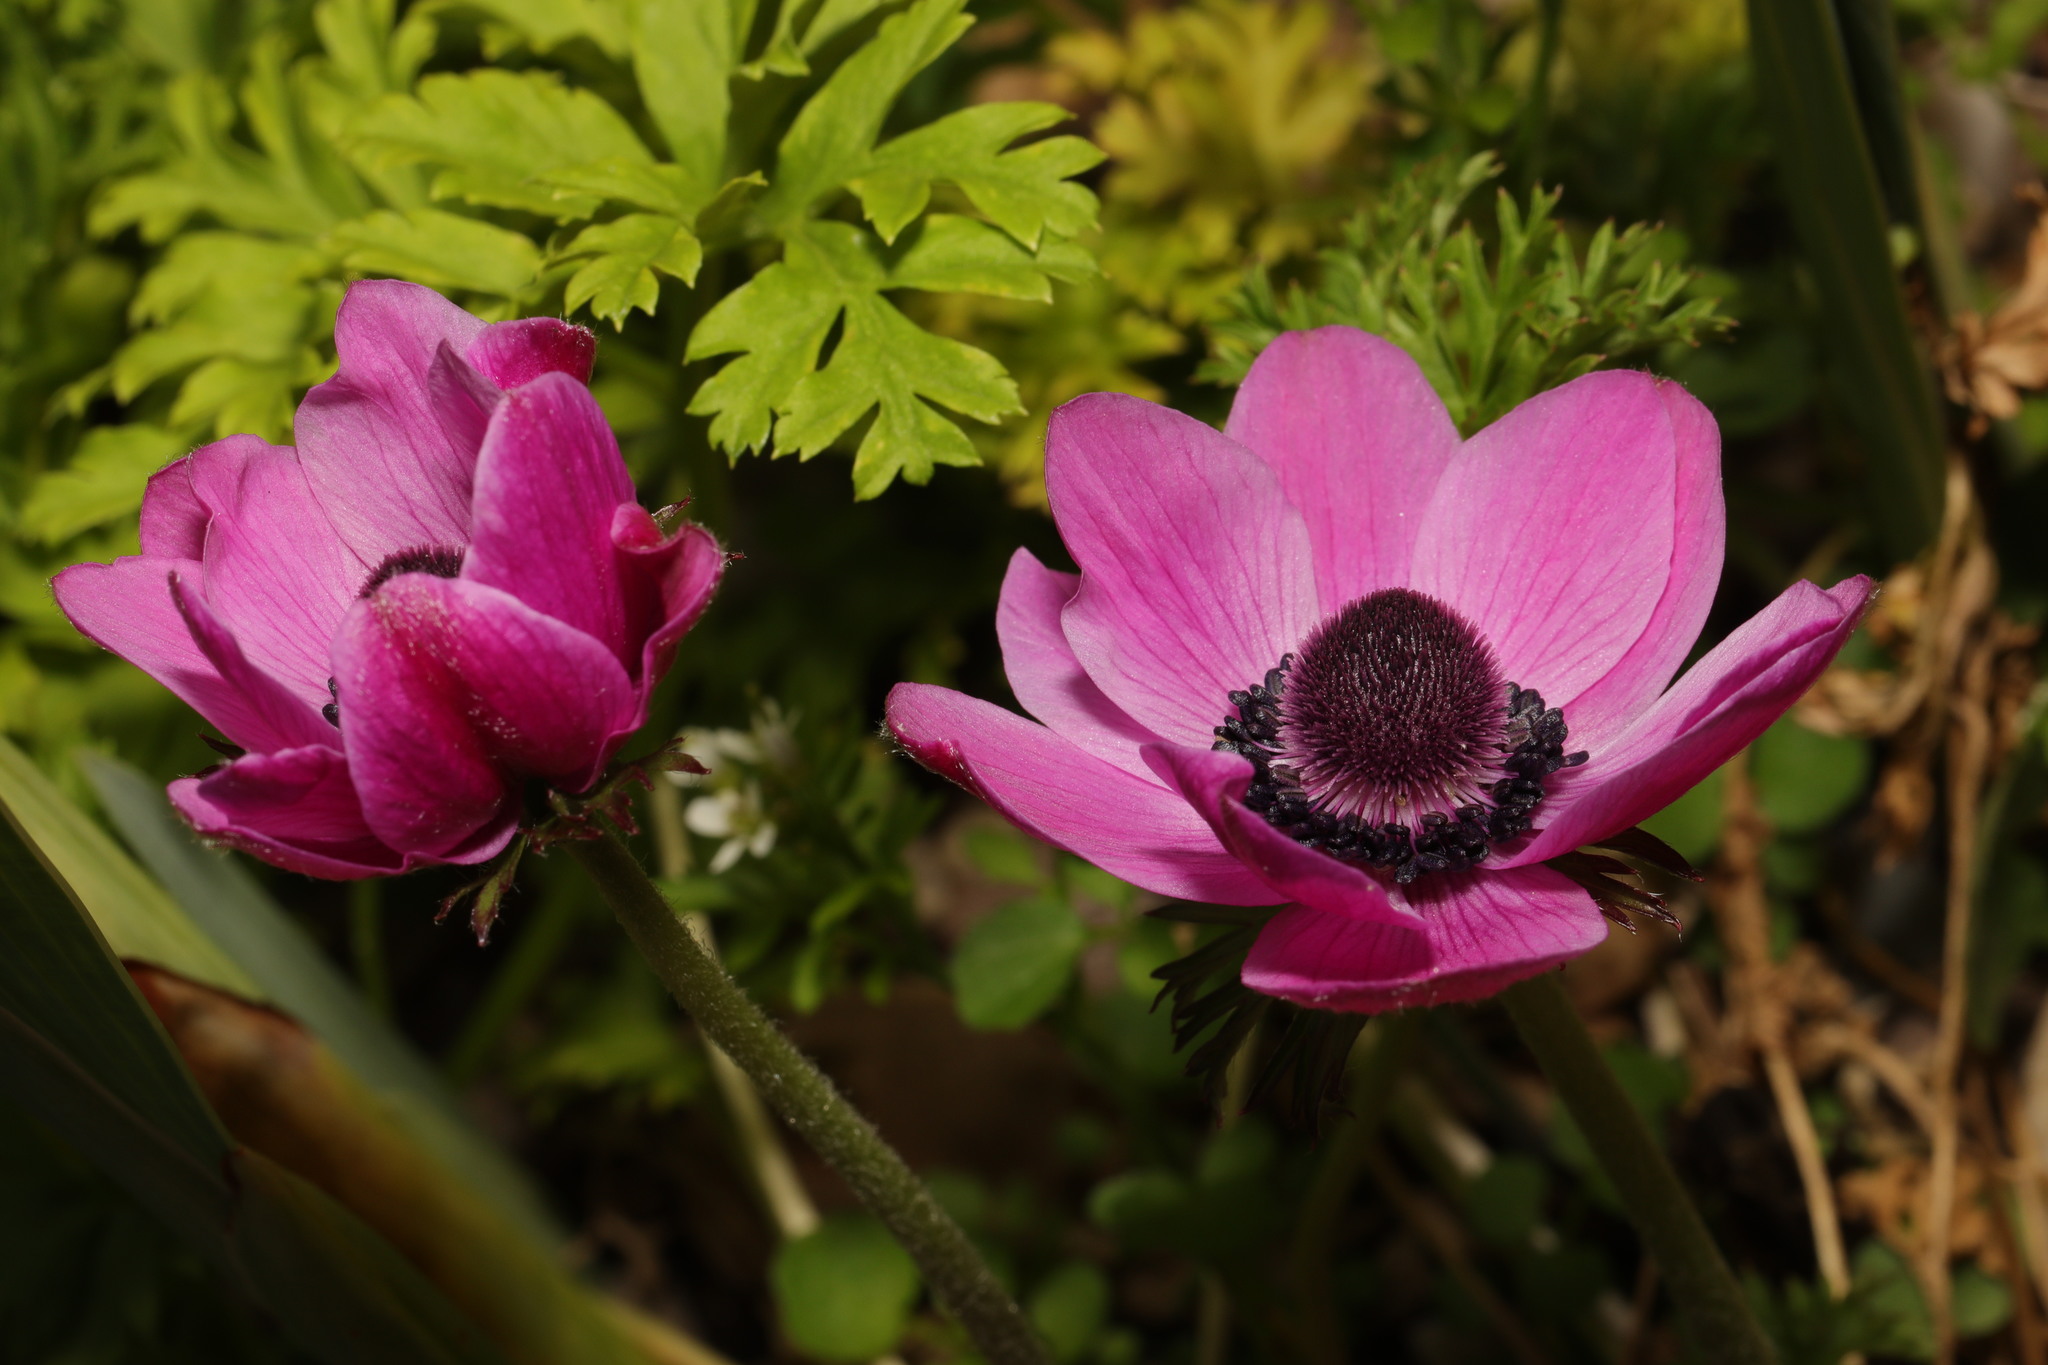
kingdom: Plantae
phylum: Tracheophyta
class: Magnoliopsida
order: Ranunculales
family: Ranunculaceae
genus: Anemone
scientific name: Anemone coronaria
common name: Poppy anemone
